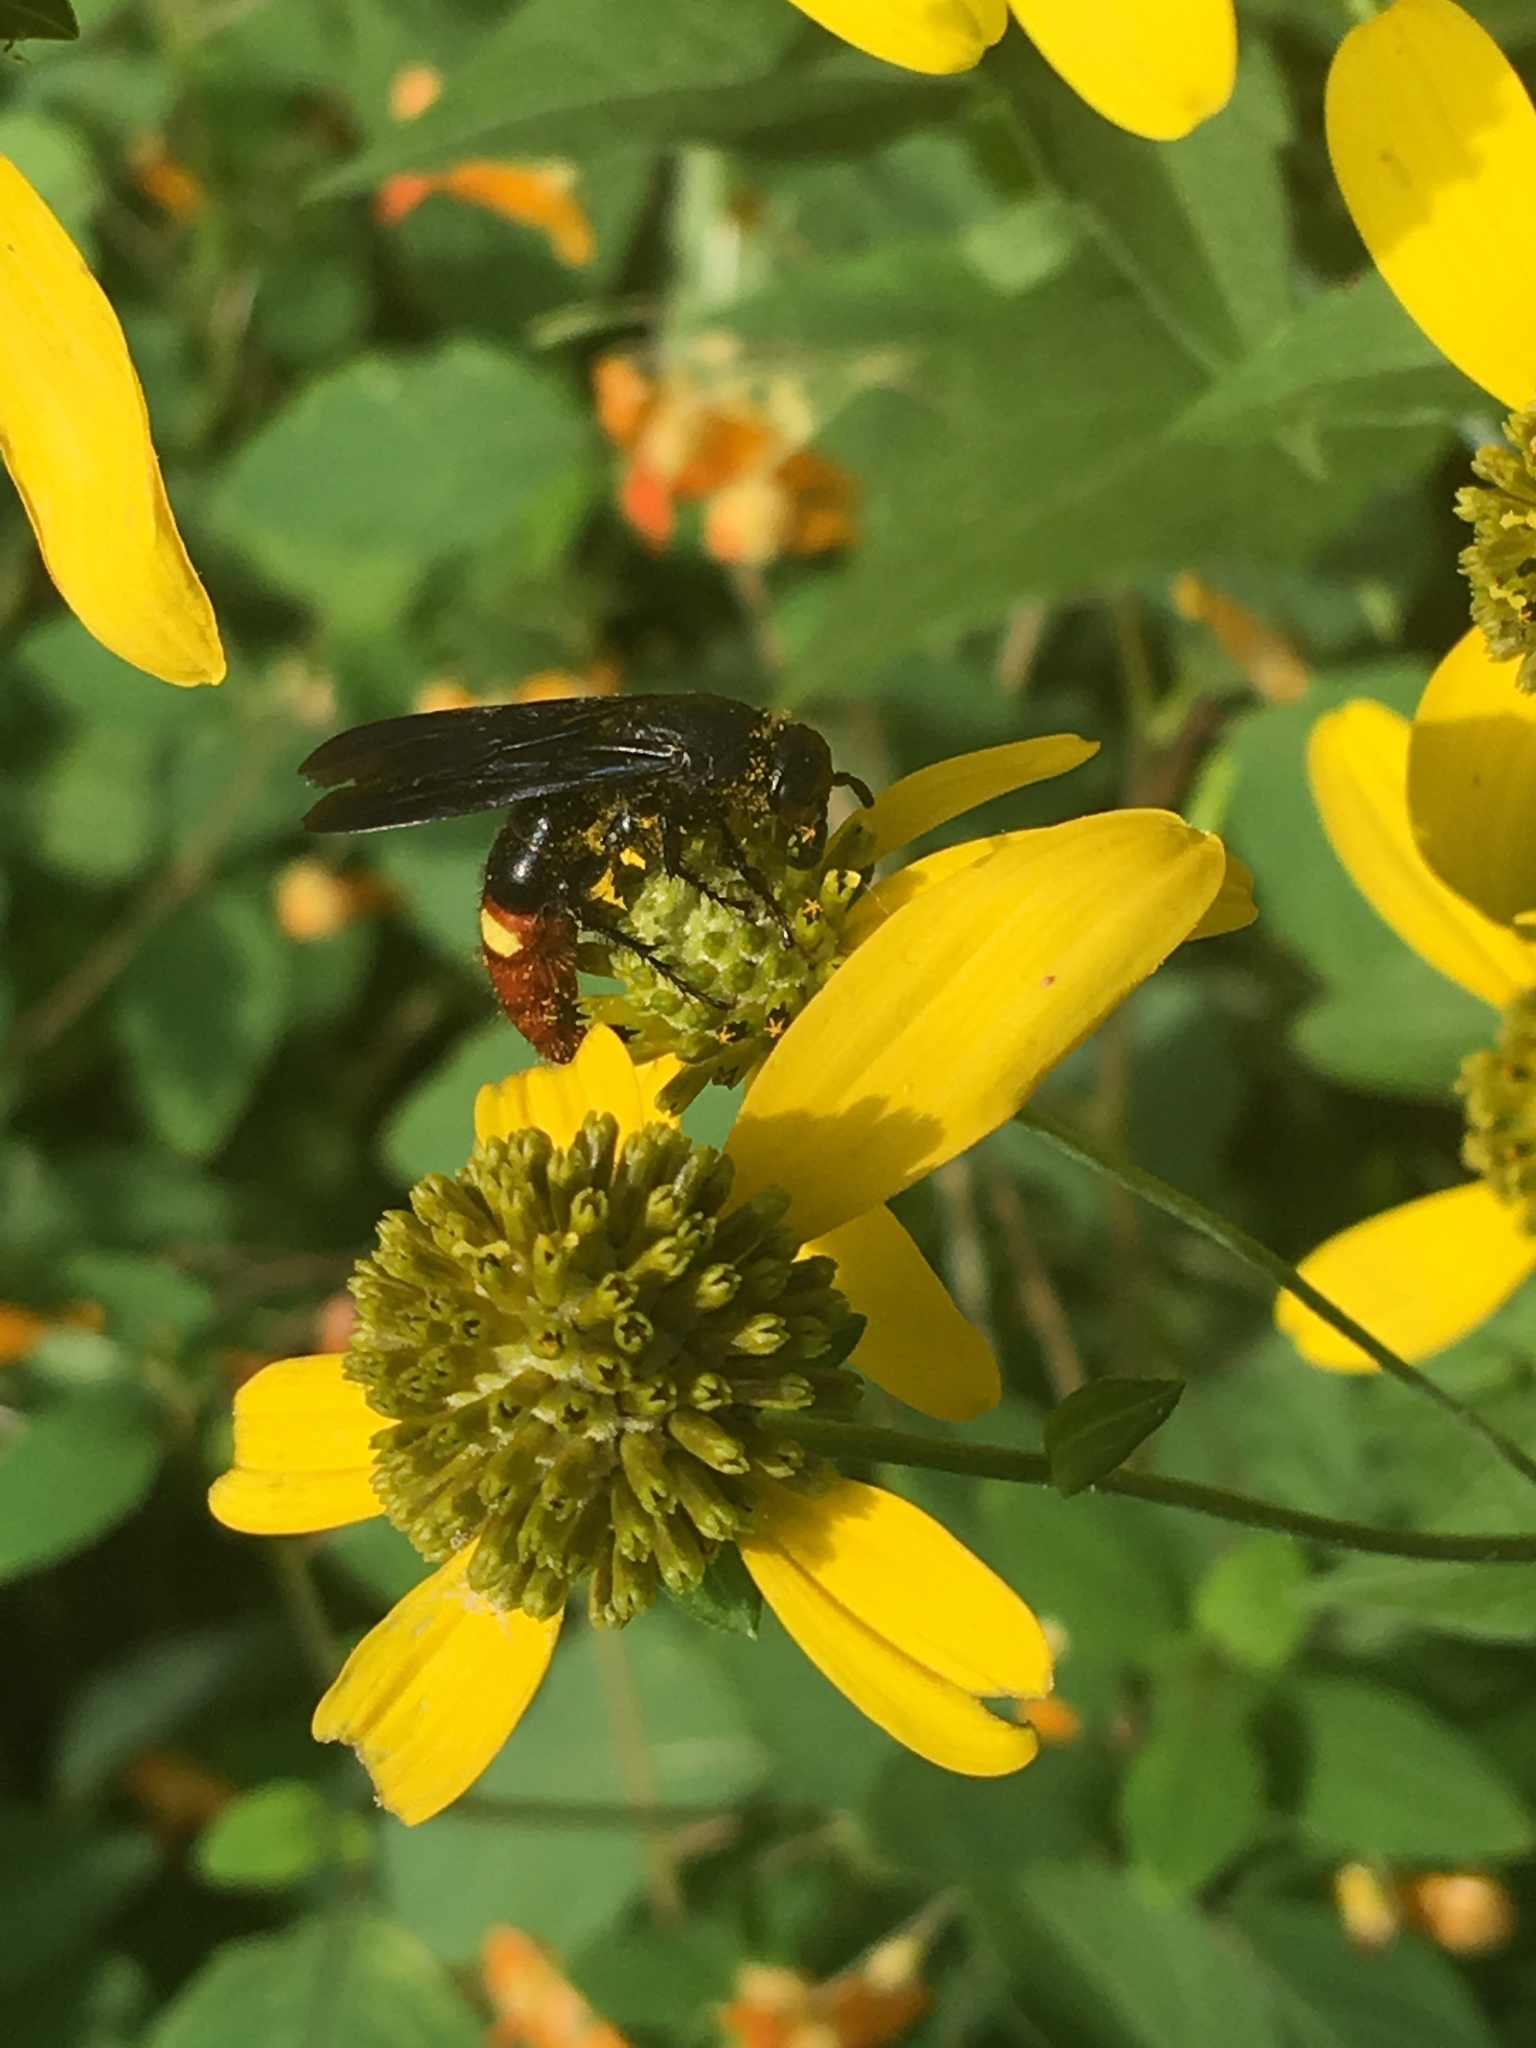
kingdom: Animalia
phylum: Arthropoda
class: Insecta
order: Hymenoptera
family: Scoliidae
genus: Scolia
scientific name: Scolia dubia
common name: Blue-winged scoliid wasp
